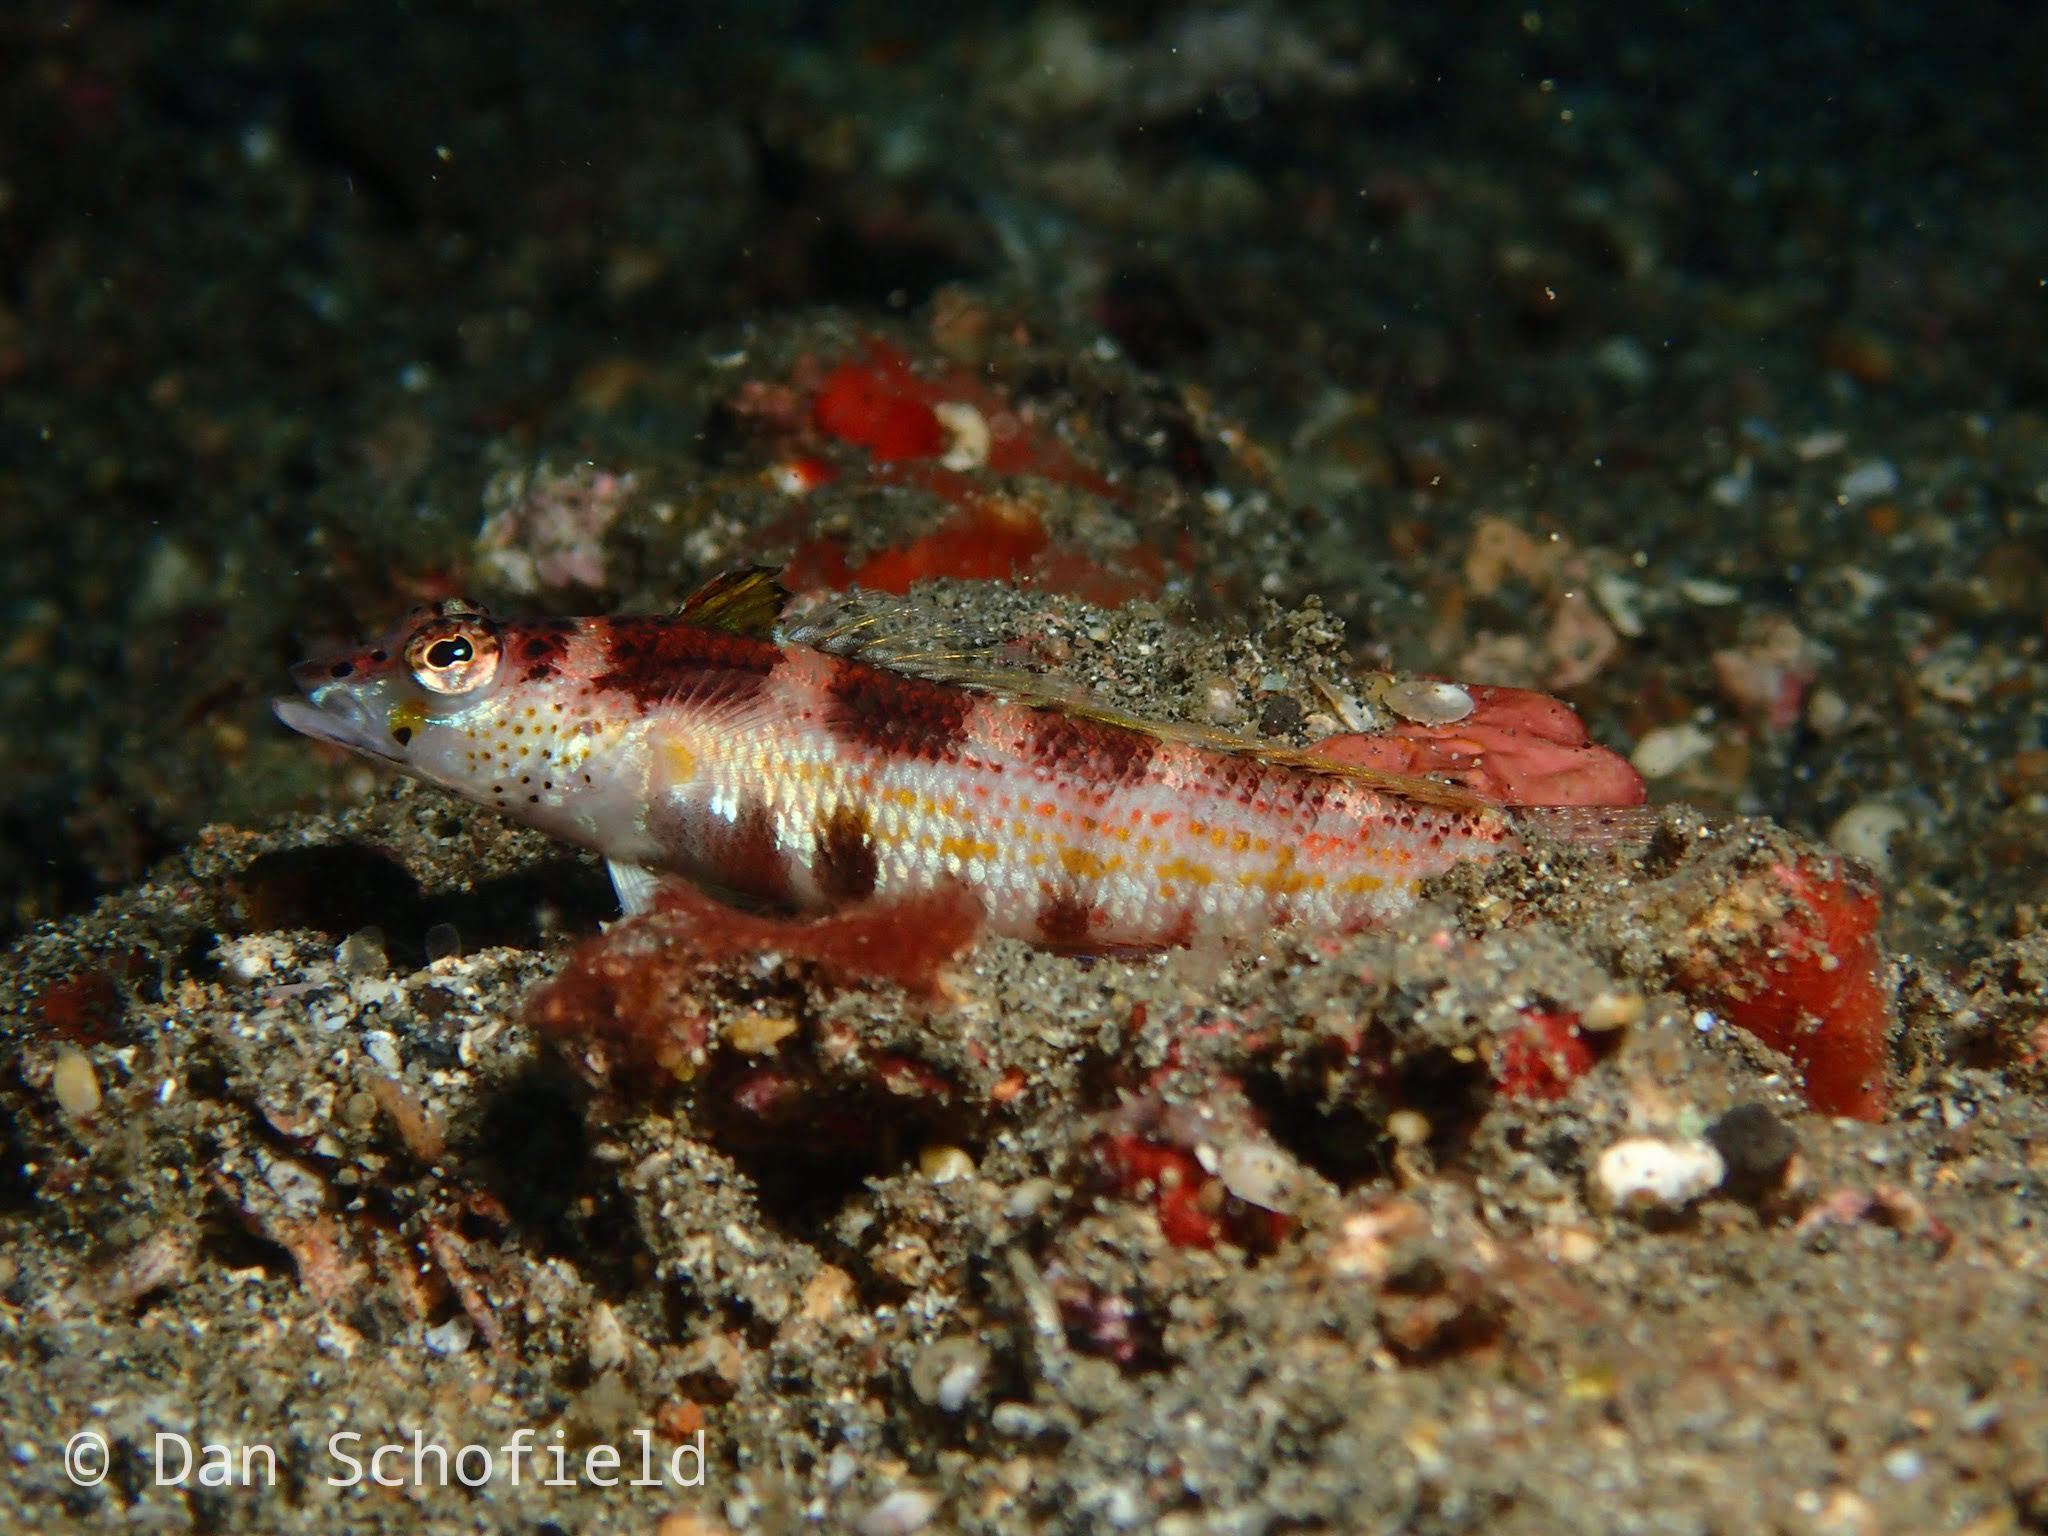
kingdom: Animalia
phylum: Chordata
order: Perciformes
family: Pinguipedidae
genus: Parapercis
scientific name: Parapercis snyderi
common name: U-mark sandperch
